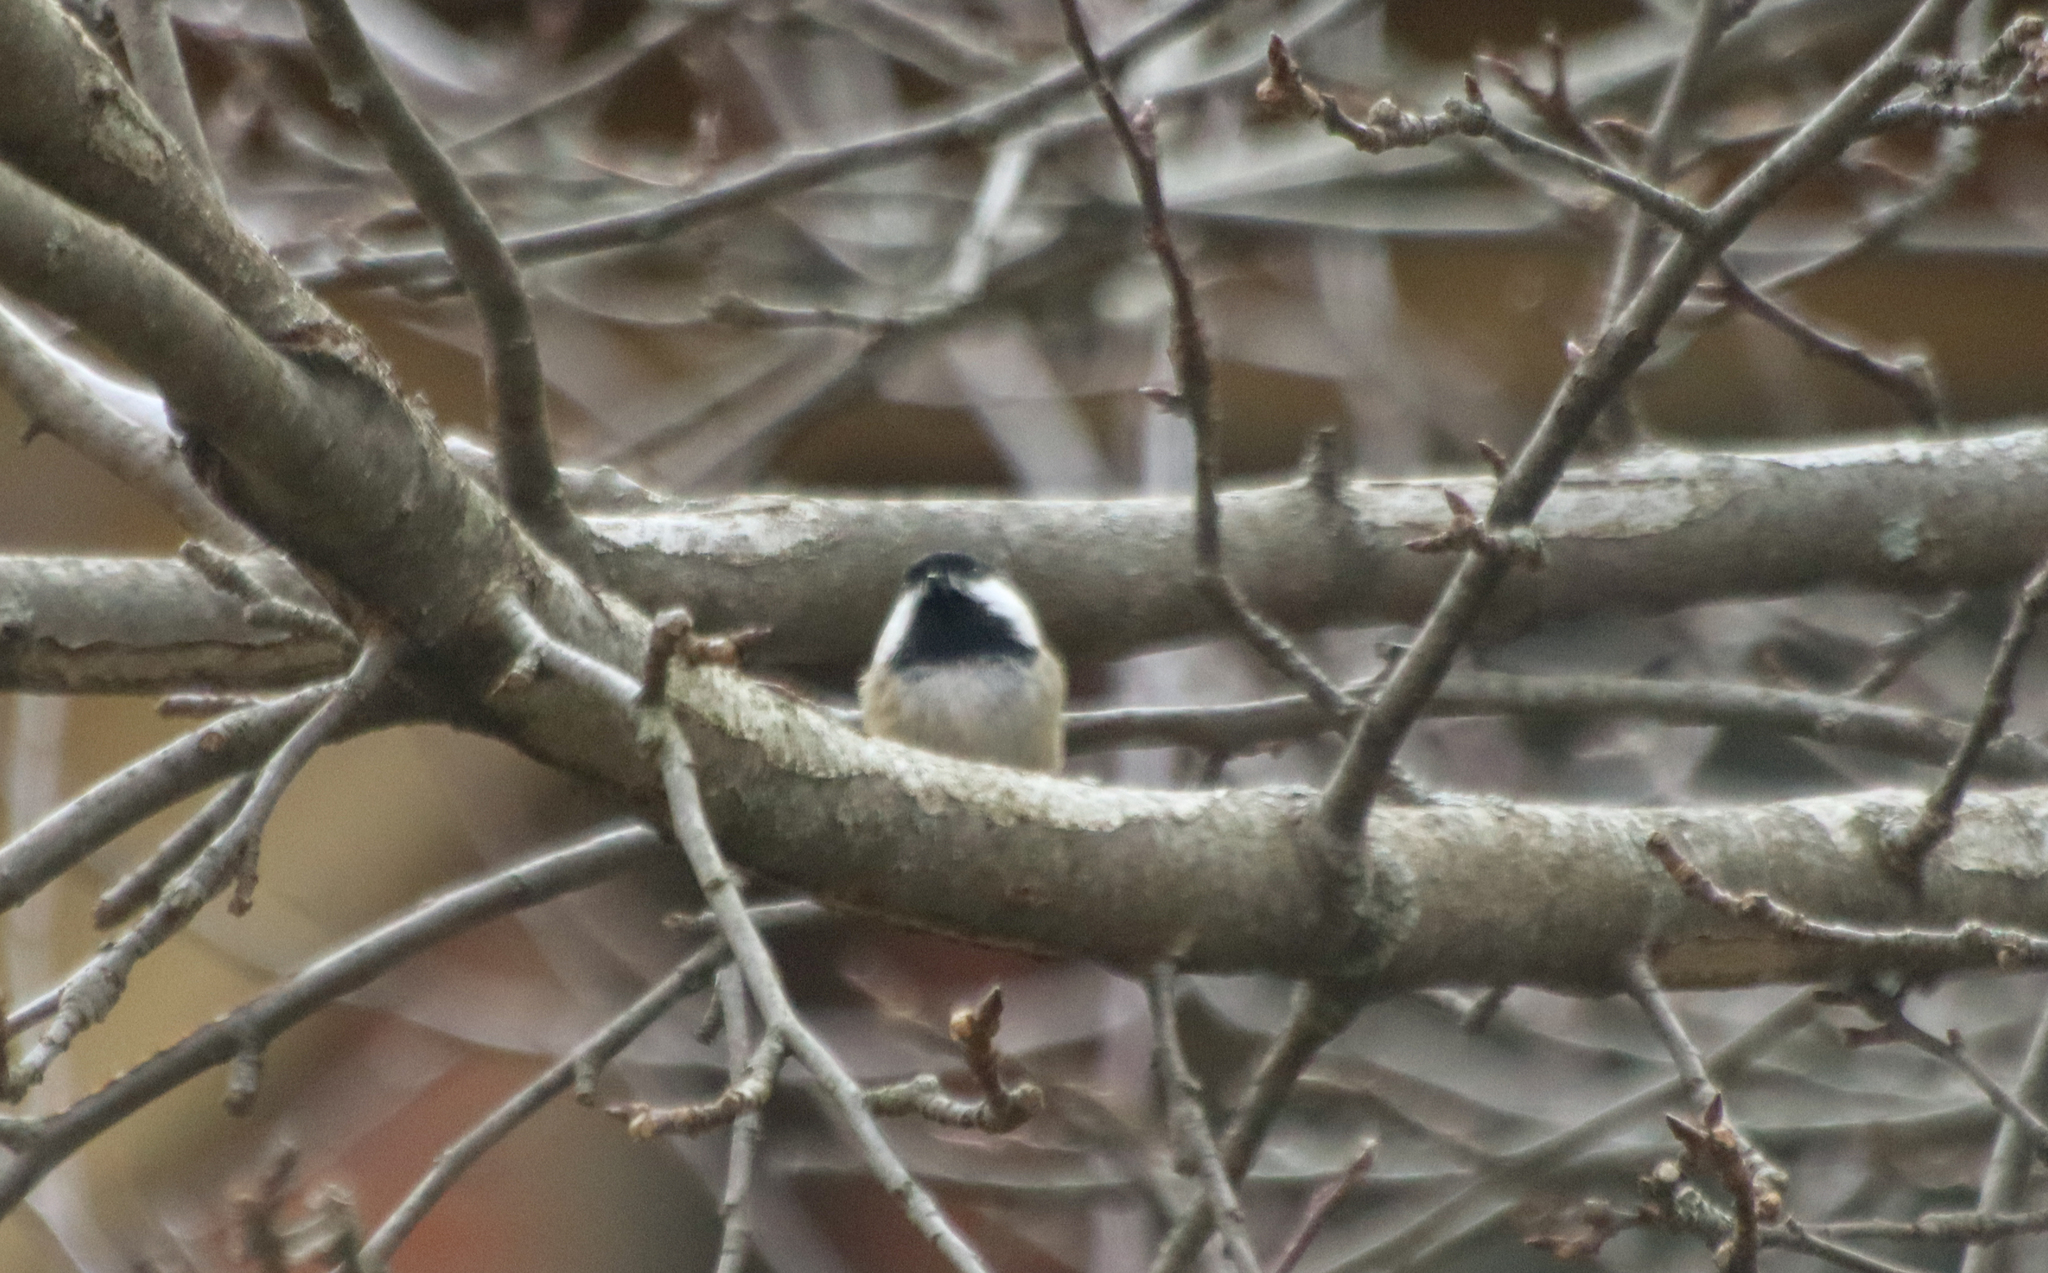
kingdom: Animalia
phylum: Chordata
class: Aves
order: Passeriformes
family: Paridae
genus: Poecile
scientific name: Poecile atricapillus
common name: Black-capped chickadee
